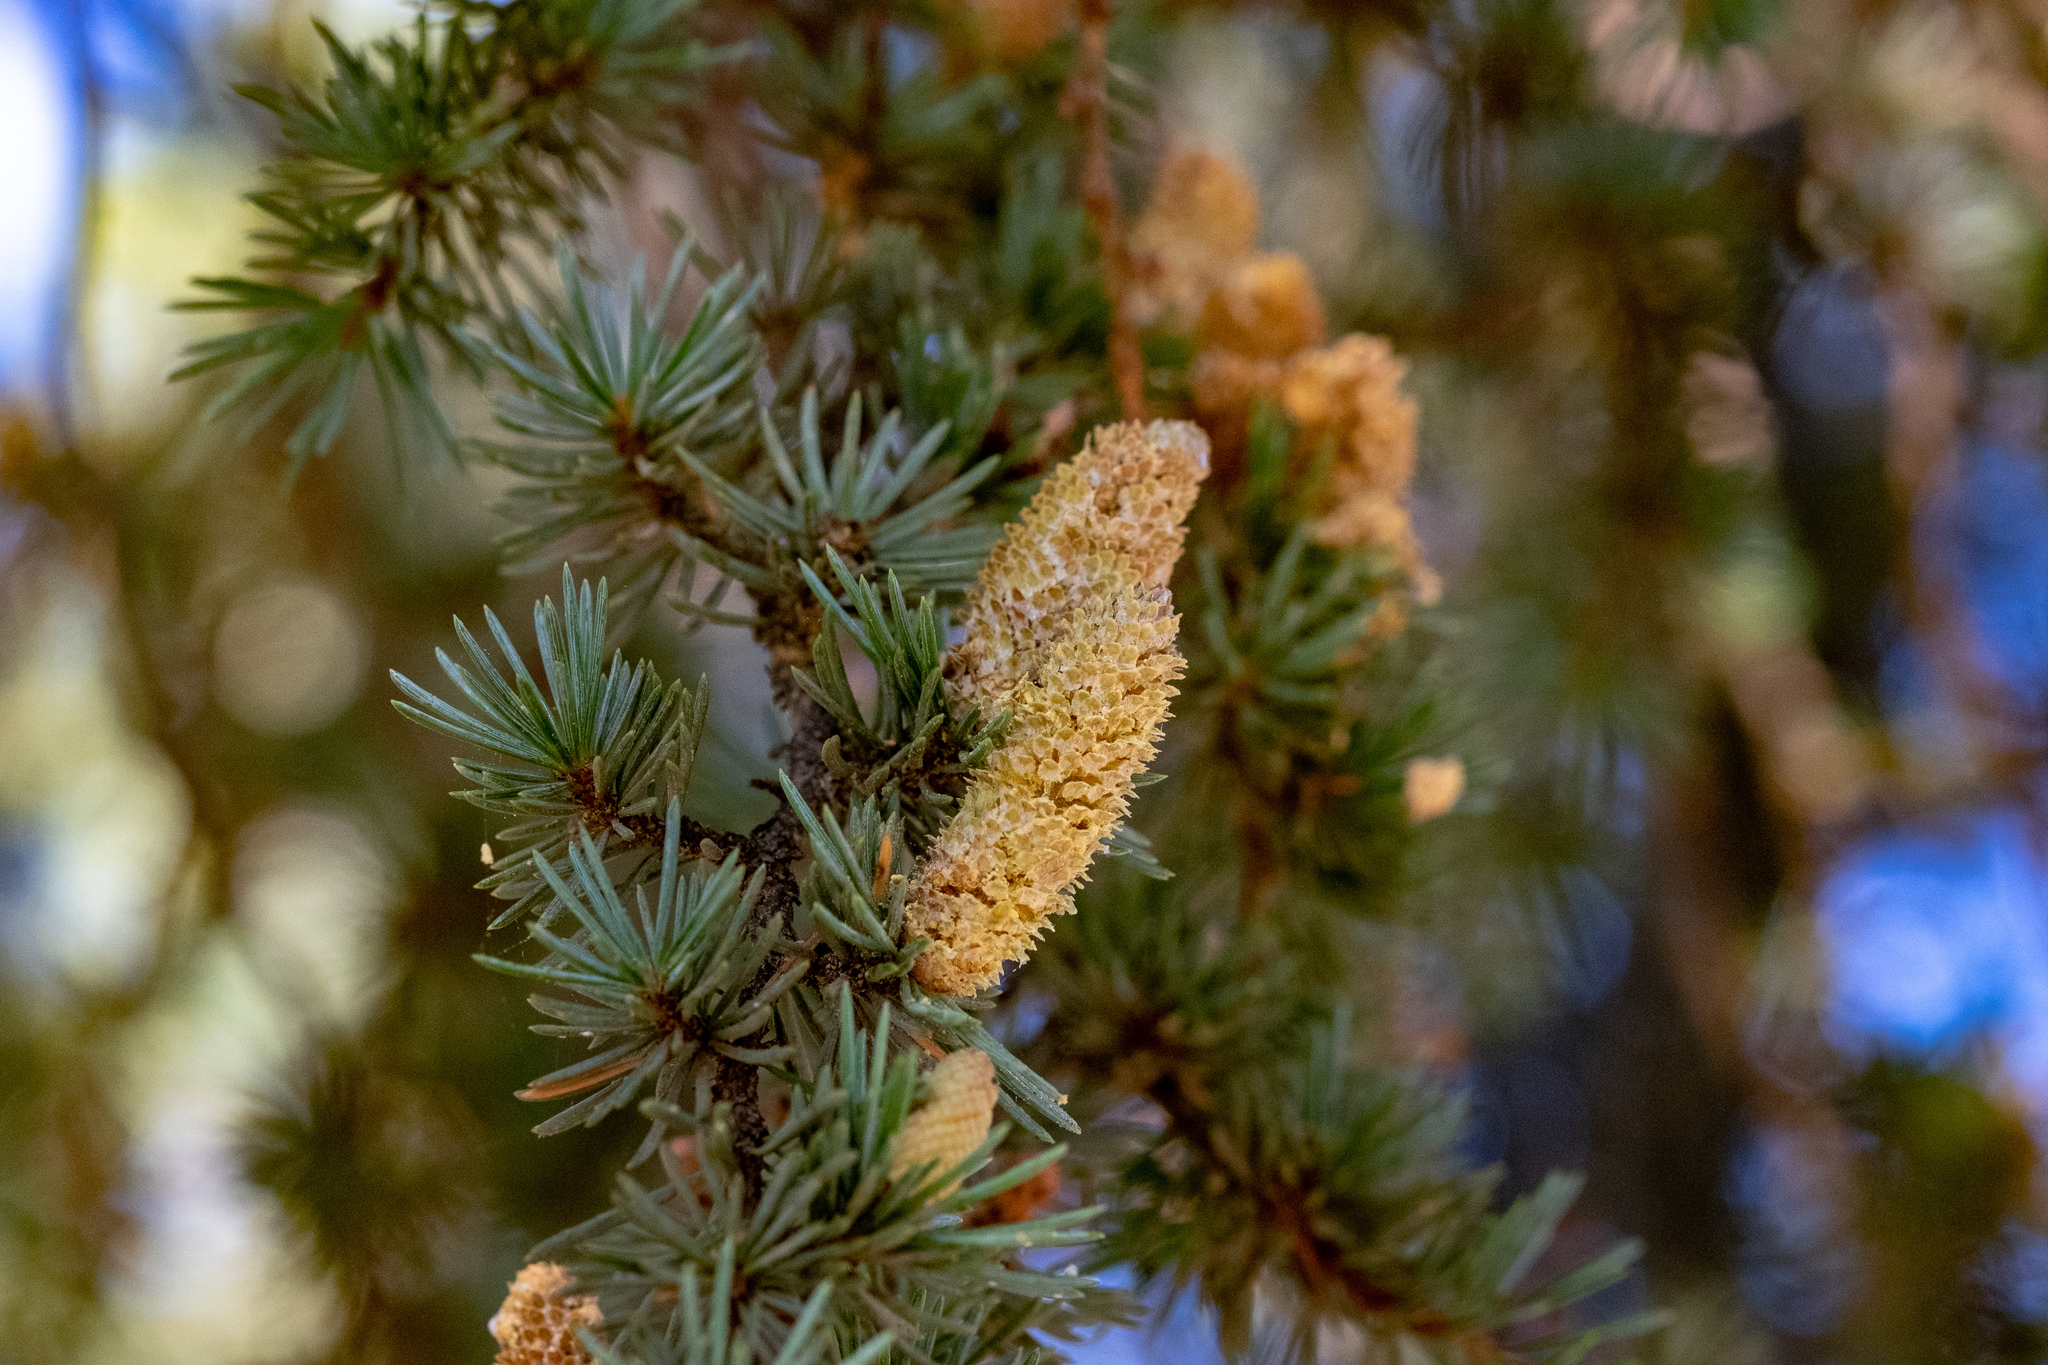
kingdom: Plantae
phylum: Tracheophyta
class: Pinopsida
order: Pinales
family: Pinaceae
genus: Cedrus
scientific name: Cedrus atlantica
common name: Atlas cedar
